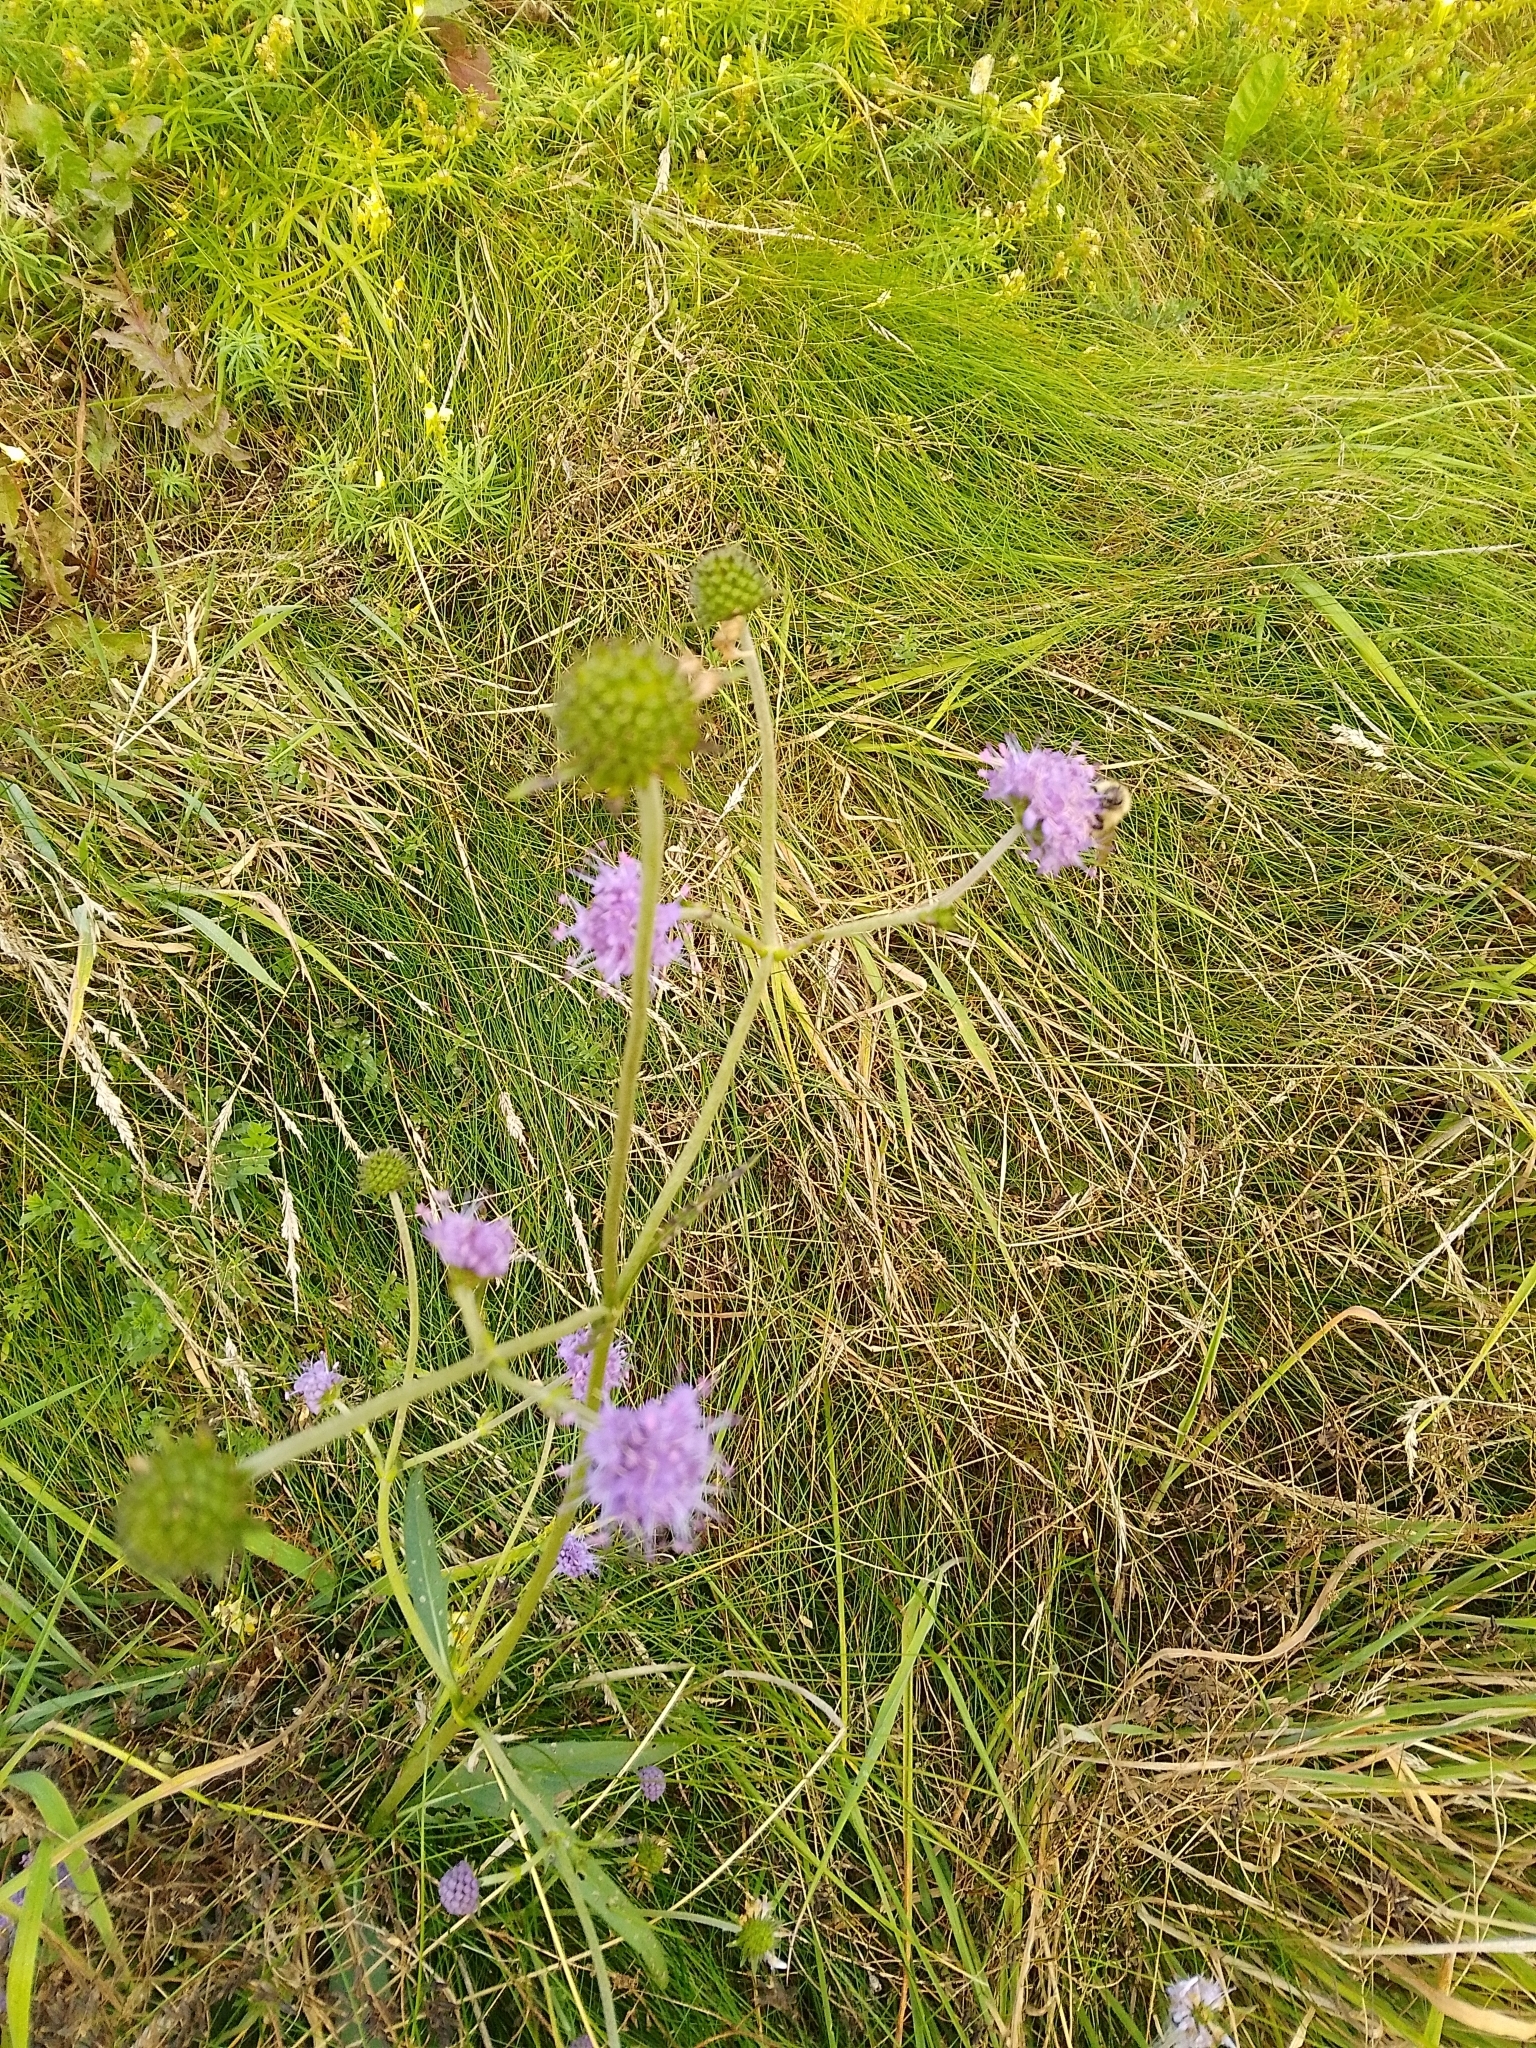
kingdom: Plantae
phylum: Tracheophyta
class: Magnoliopsida
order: Dipsacales
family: Caprifoliaceae
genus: Succisa
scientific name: Succisa pratensis
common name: Devil's-bit
